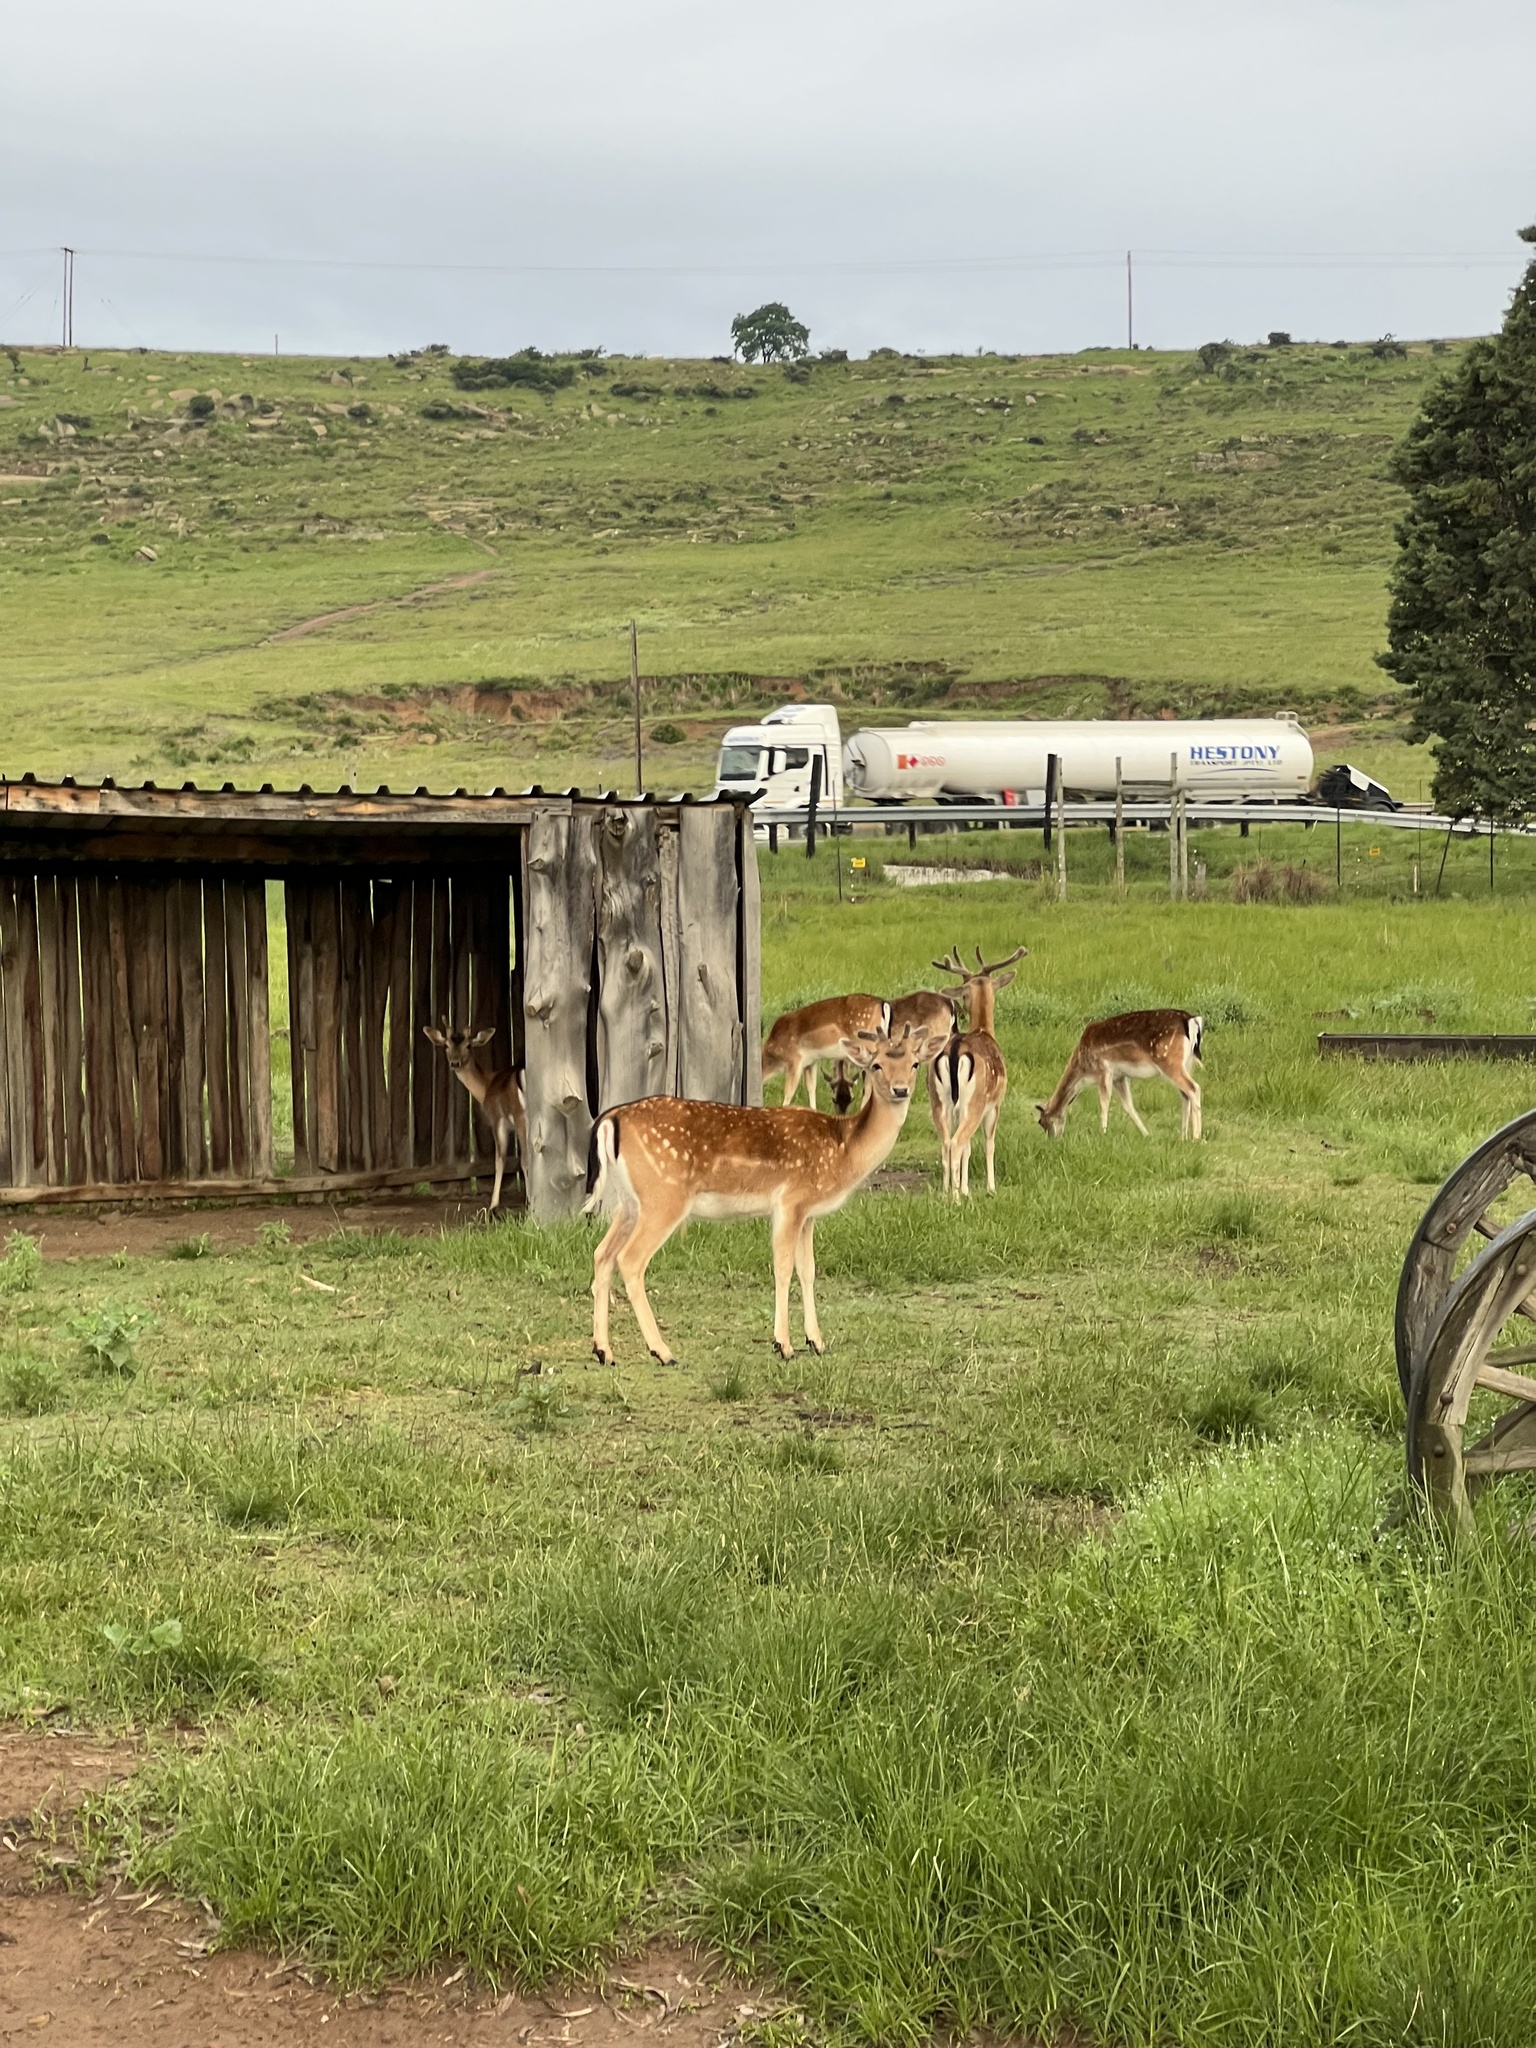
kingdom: Animalia
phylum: Chordata
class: Mammalia
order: Artiodactyla
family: Cervidae
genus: Dama
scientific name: Dama dama
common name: Fallow deer
